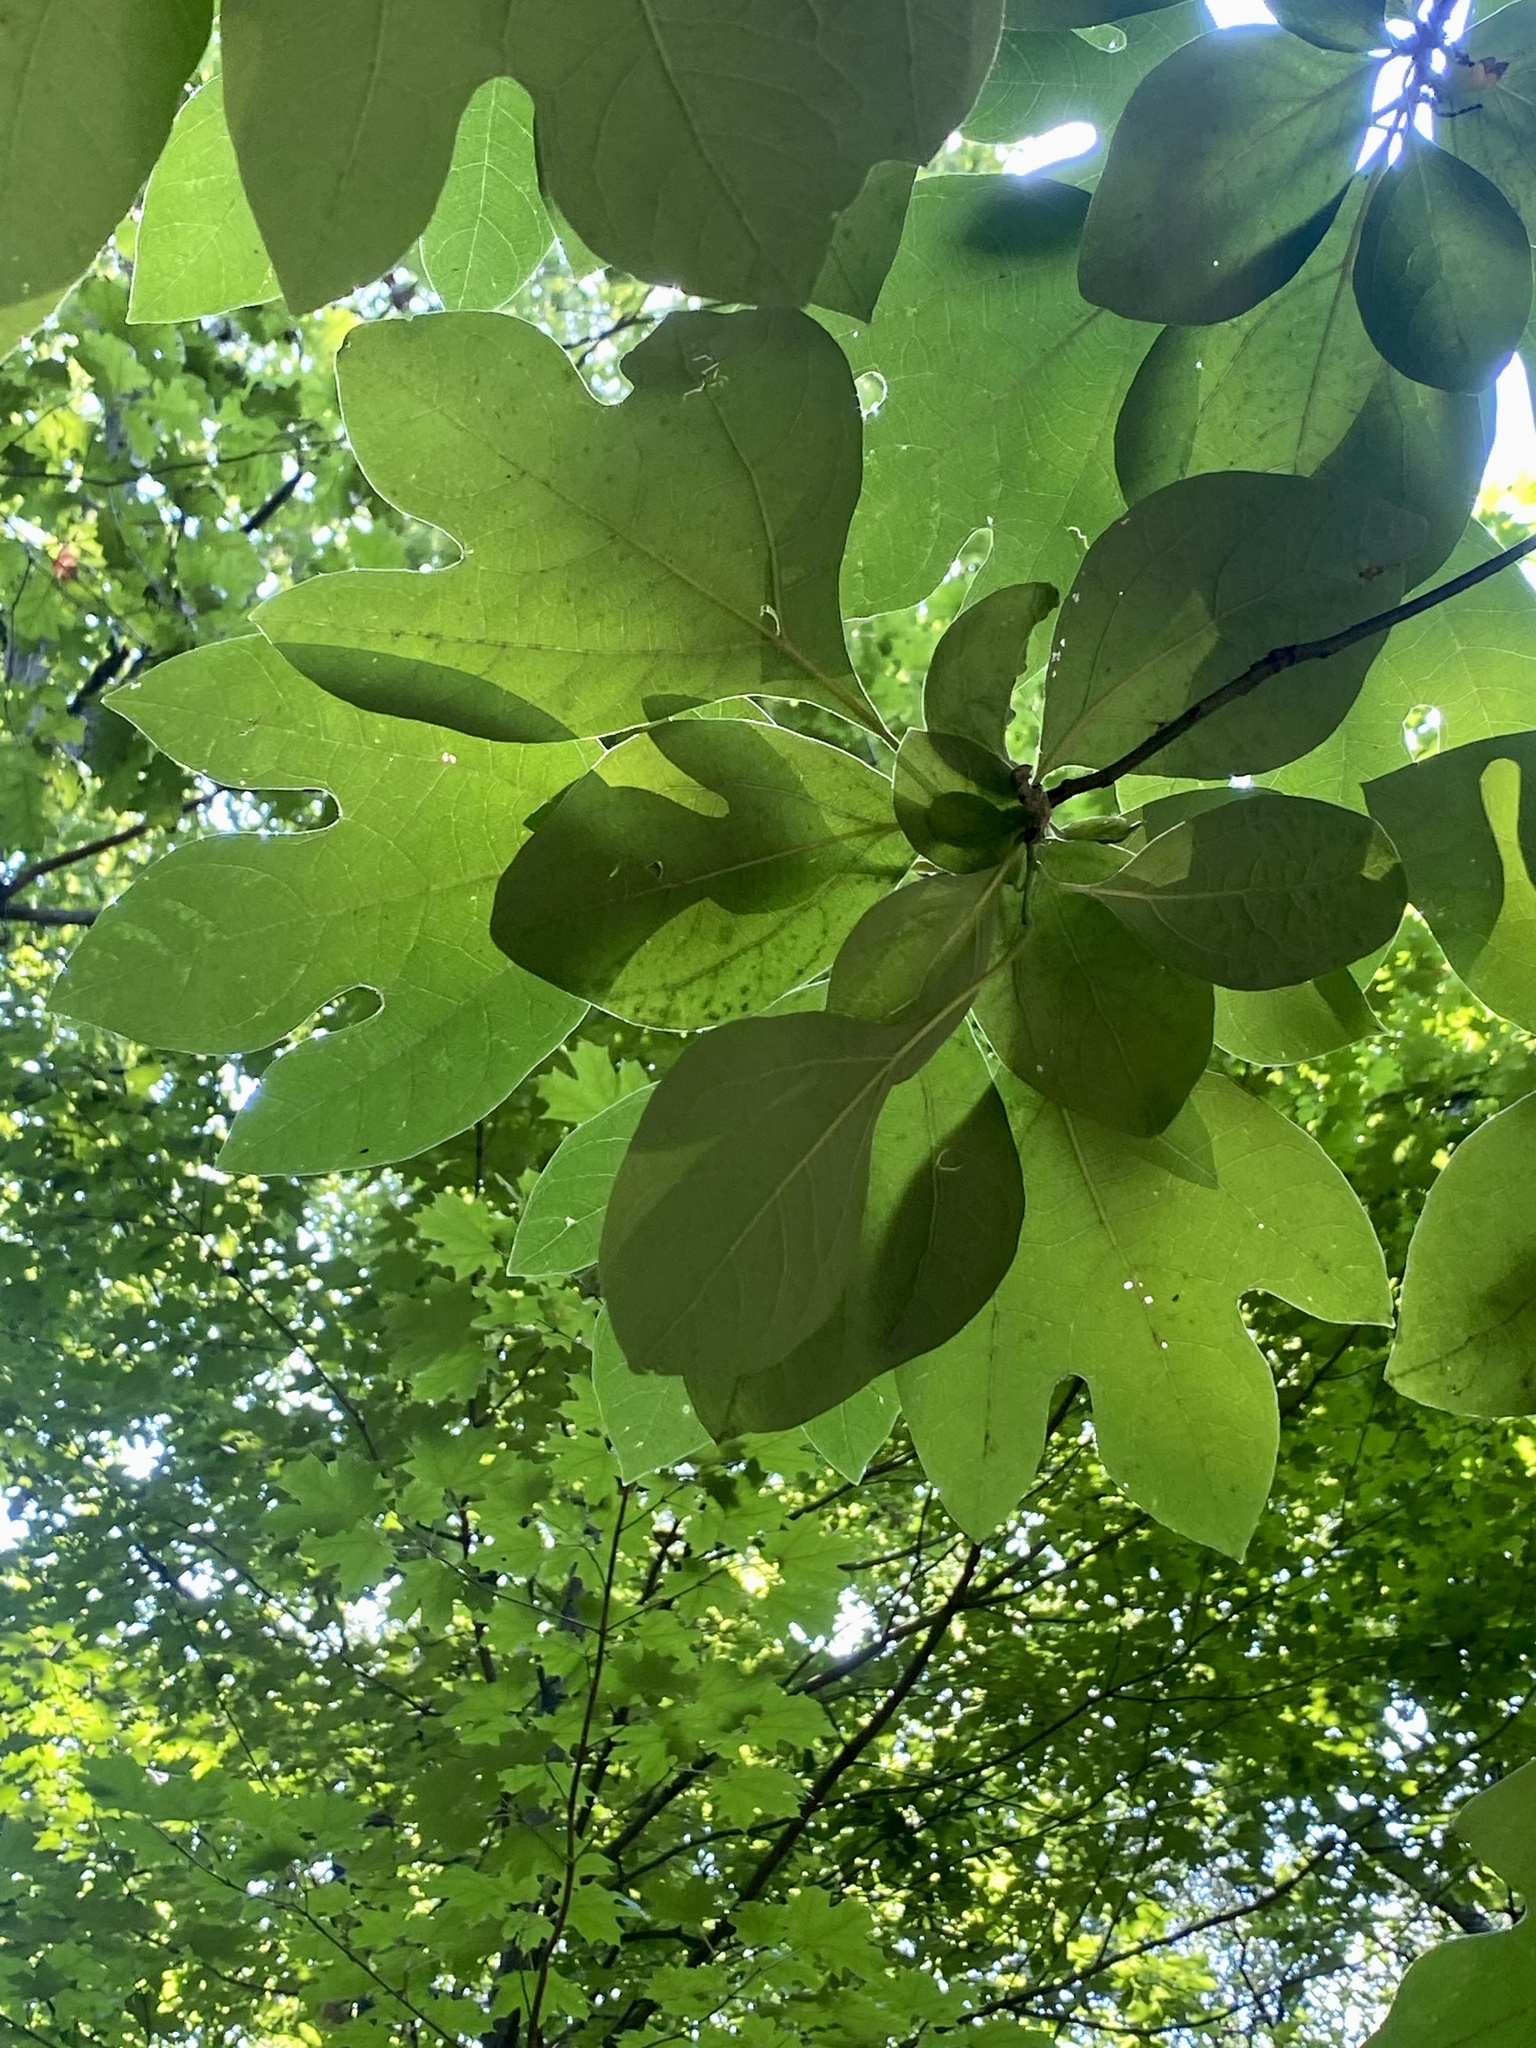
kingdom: Plantae
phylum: Tracheophyta
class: Magnoliopsida
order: Laurales
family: Lauraceae
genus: Sassafras
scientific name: Sassafras albidum
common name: Sassafras
